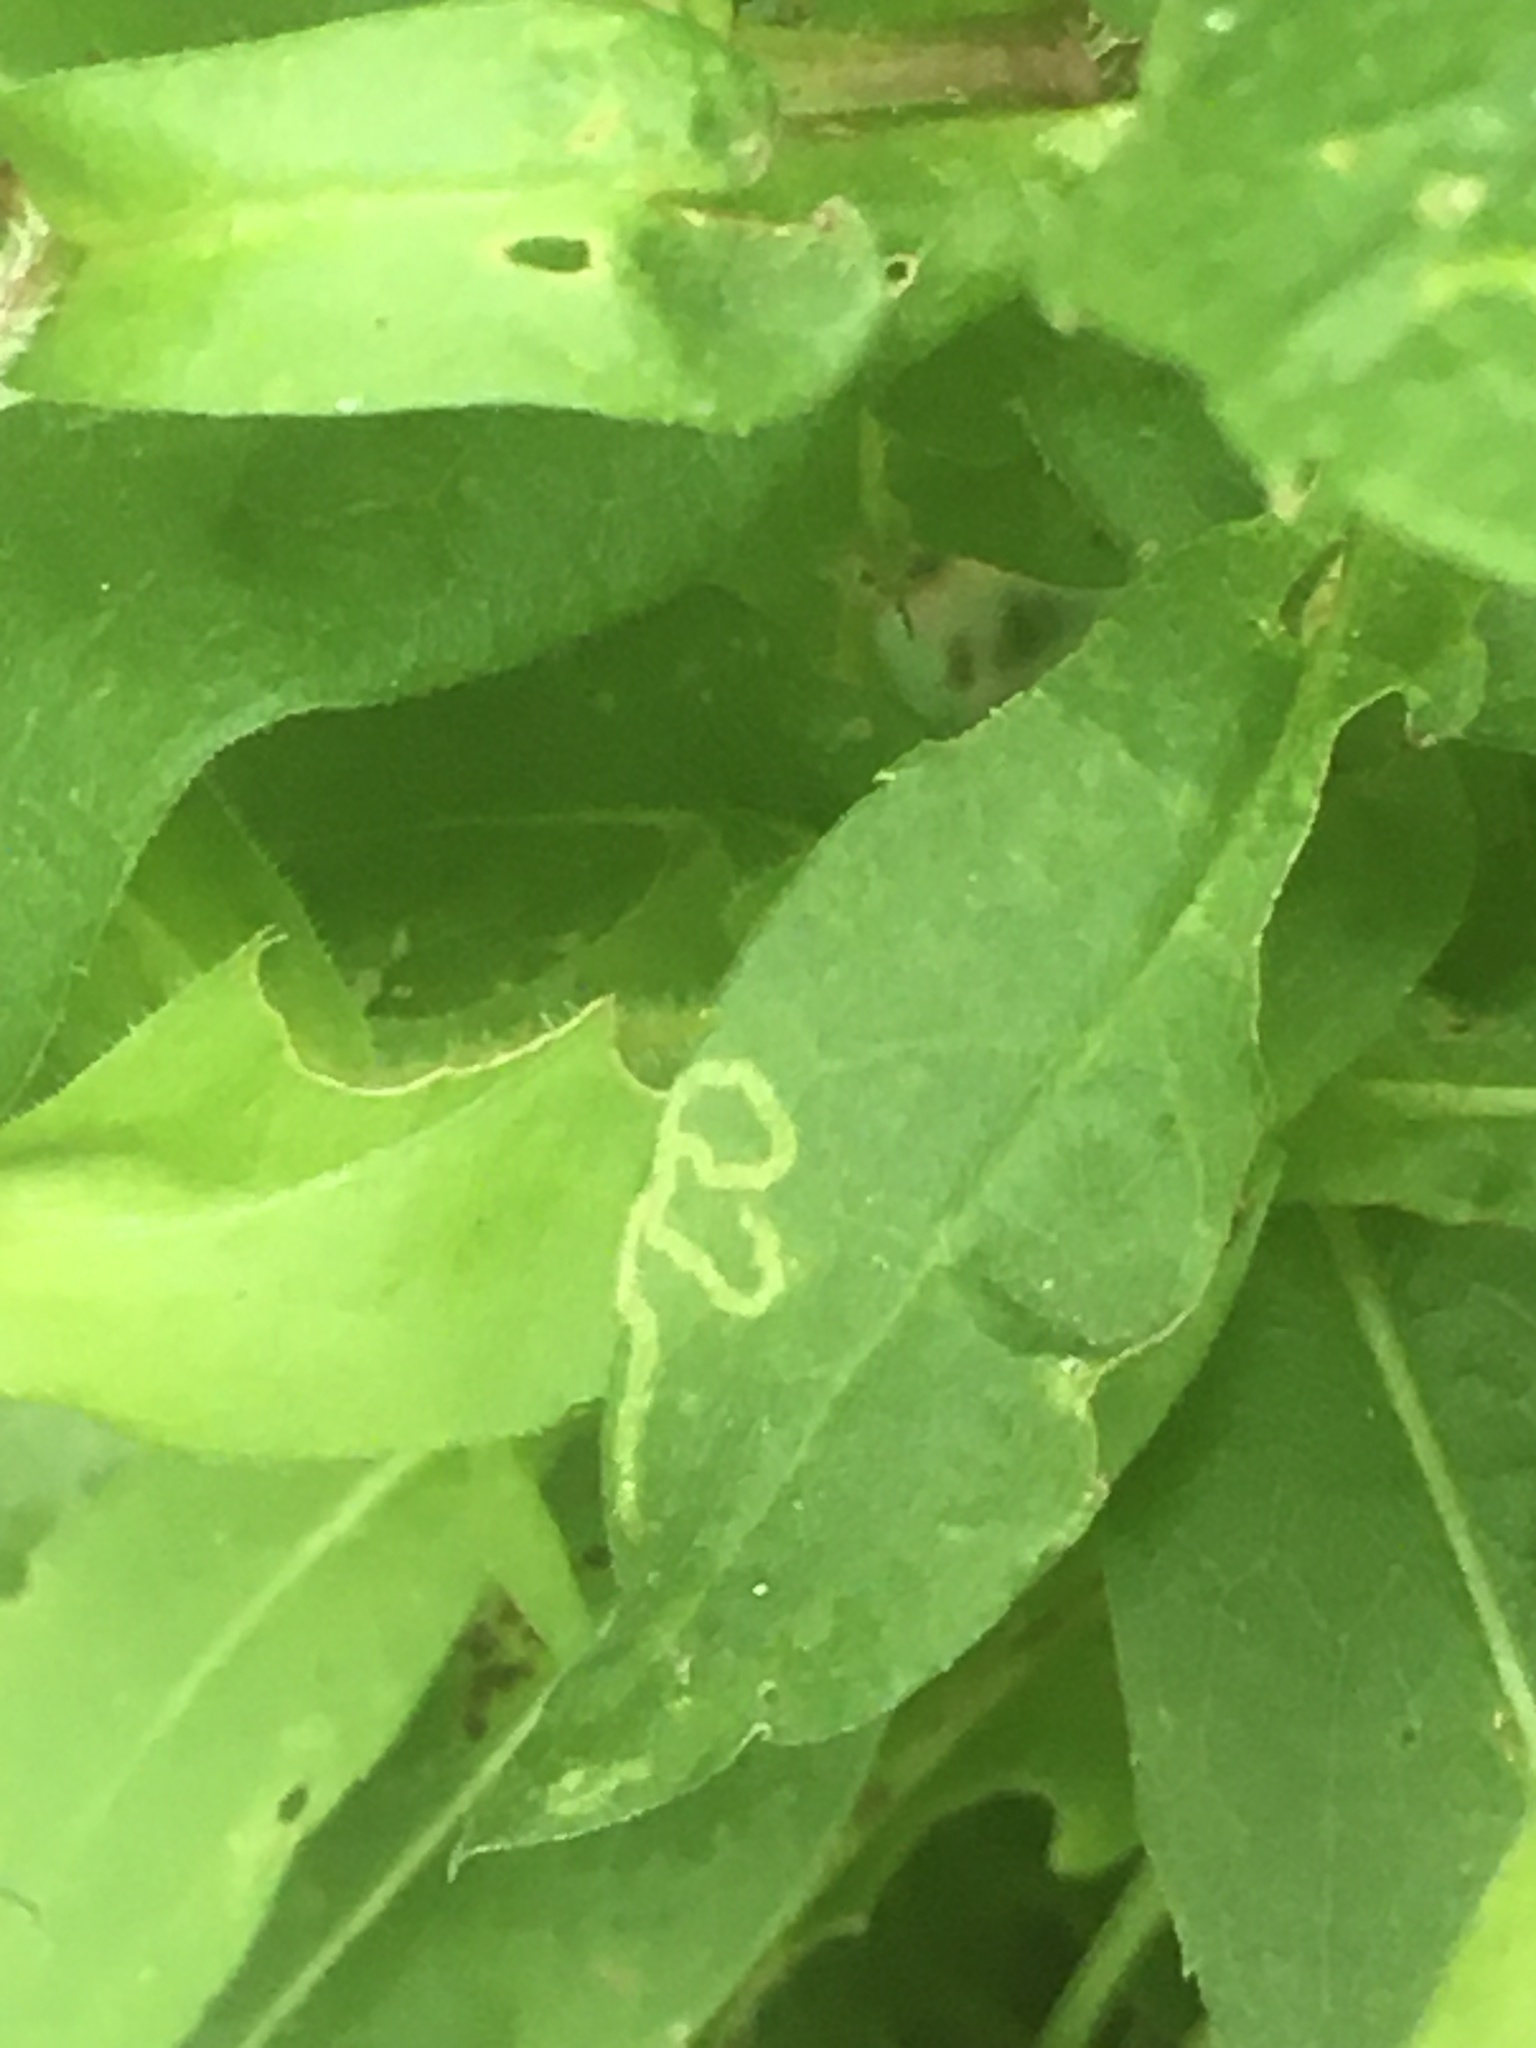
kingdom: Plantae
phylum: Tracheophyta
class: Magnoliopsida
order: Asterales
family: Asteraceae
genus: Symphyotrichum
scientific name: Symphyotrichum puniceum
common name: Bog aster
